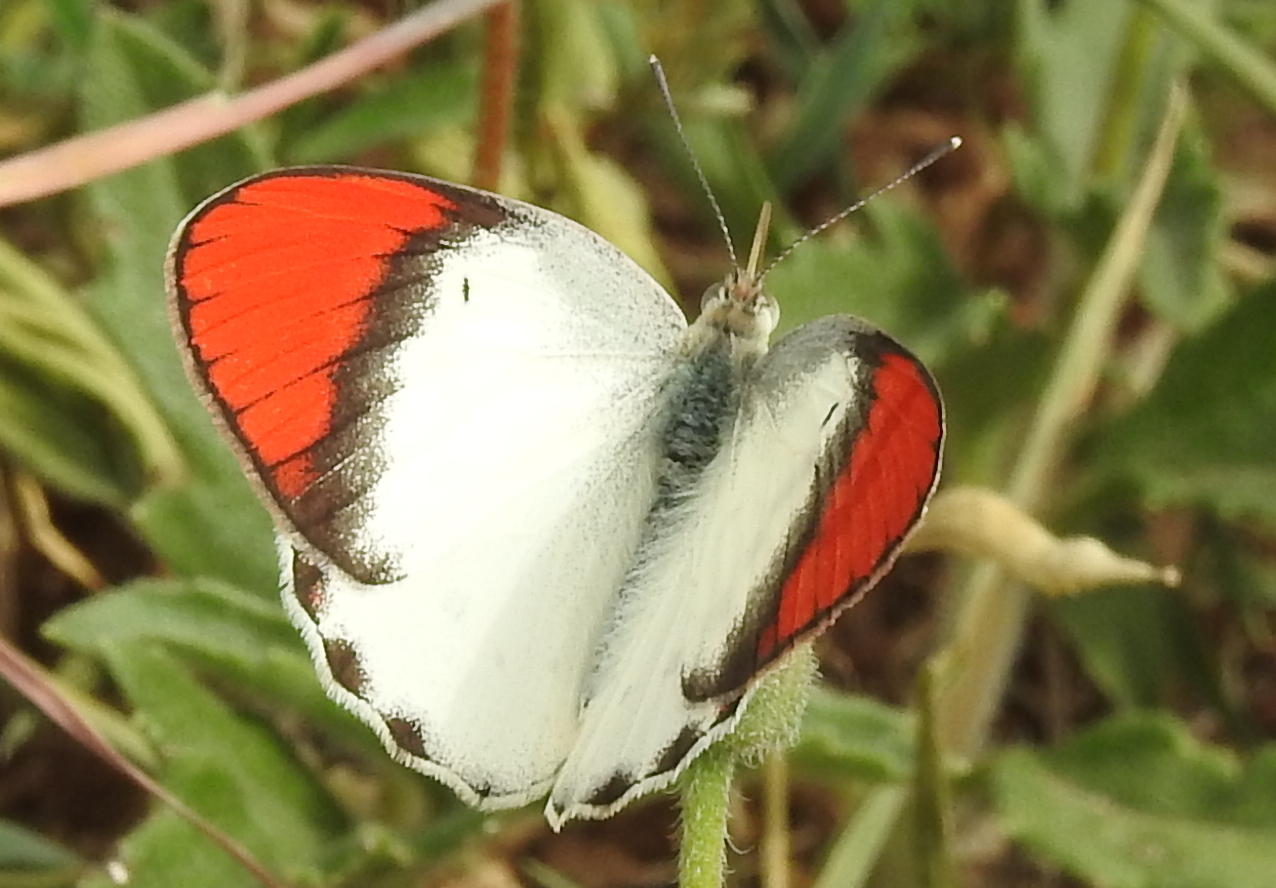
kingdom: Animalia
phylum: Arthropoda
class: Insecta
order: Lepidoptera
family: Pieridae
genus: Colotis
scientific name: Colotis danae
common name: Crimson tip
